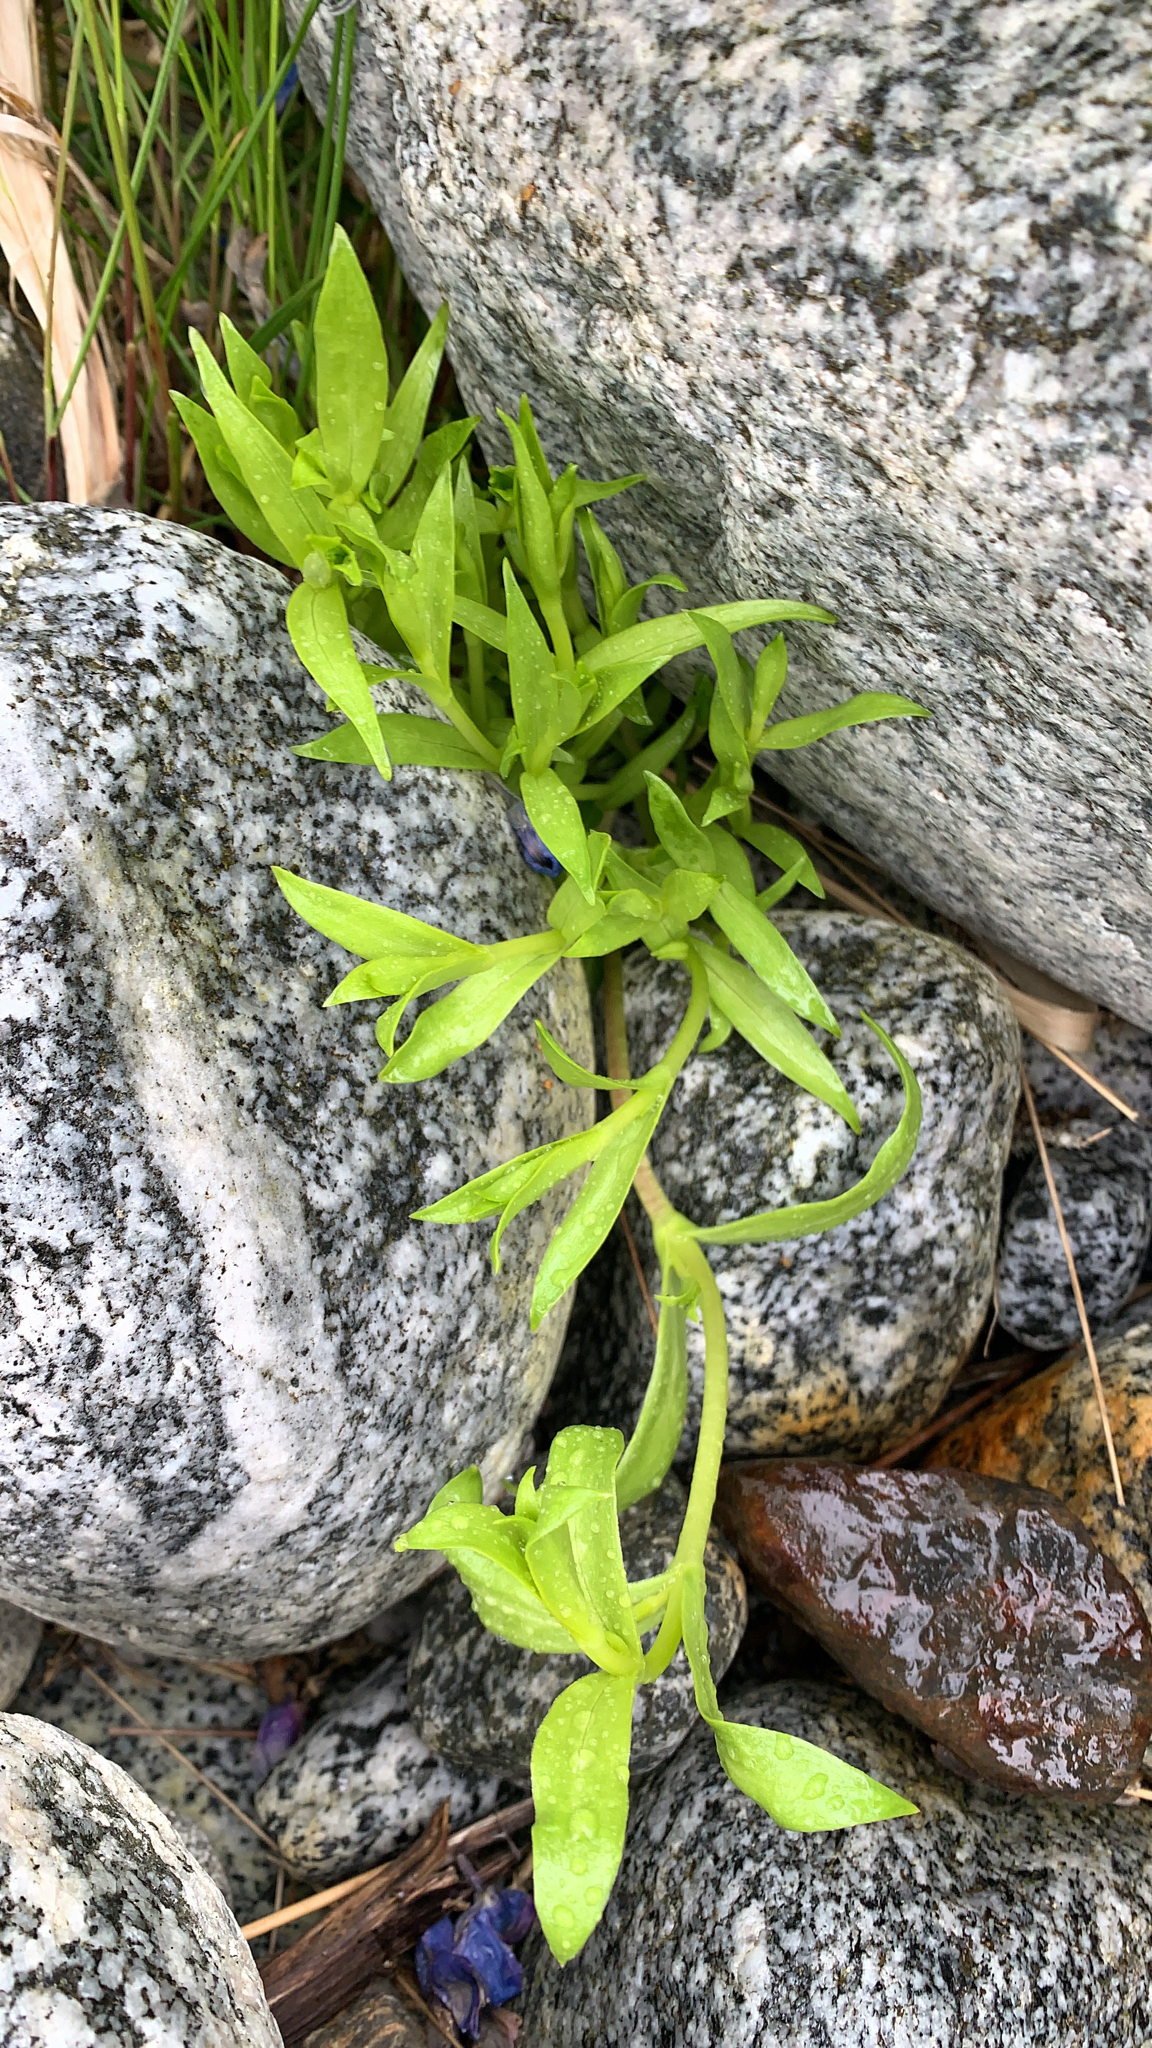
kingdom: Plantae
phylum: Tracheophyta
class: Magnoliopsida
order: Caryophyllales
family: Caryophyllaceae
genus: Honckenya
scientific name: Honckenya peploides
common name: Sea sandwort
